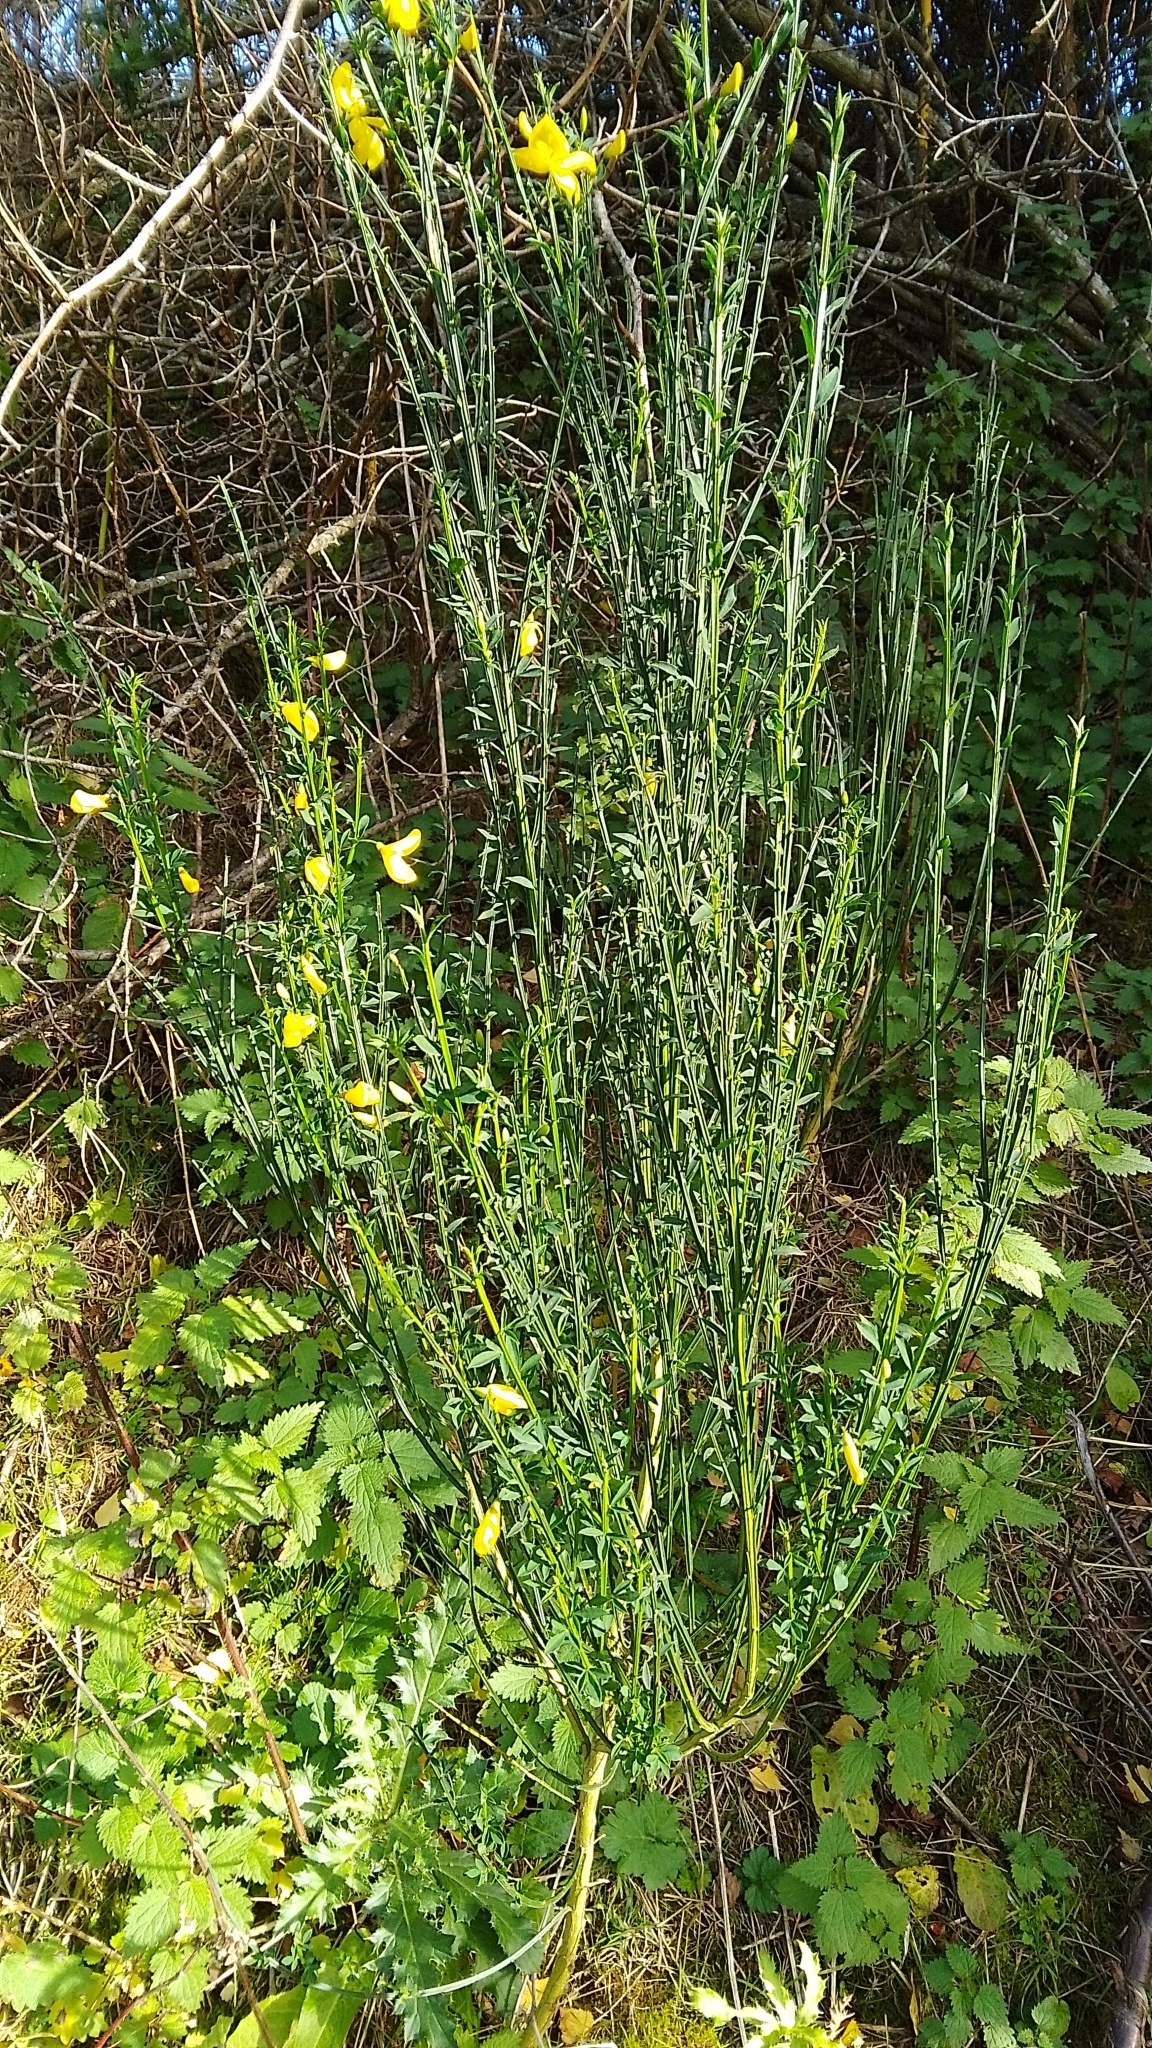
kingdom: Plantae
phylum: Tracheophyta
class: Magnoliopsida
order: Fabales
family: Fabaceae
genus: Cytisus
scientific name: Cytisus scoparius
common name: Scotch broom
